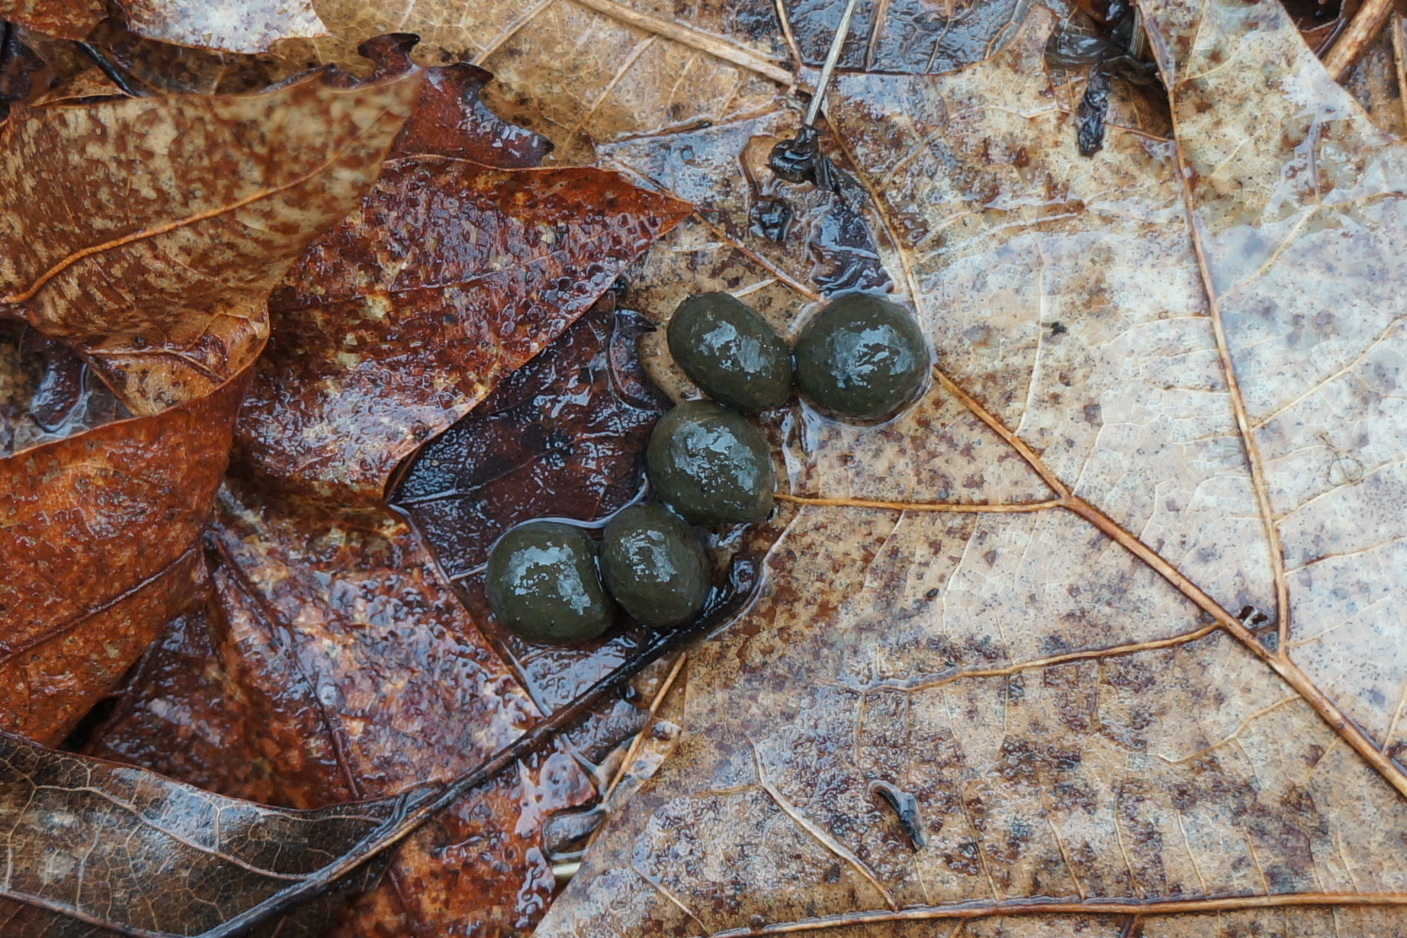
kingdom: Animalia
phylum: Chordata
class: Mammalia
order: Artiodactyla
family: Cervidae
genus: Odocoileus
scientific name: Odocoileus virginianus
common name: White-tailed deer
